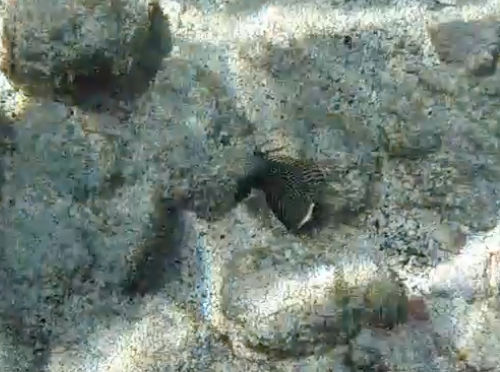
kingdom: Animalia
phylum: Chordata
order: Perciformes
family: Labridae
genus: Novaculichthys
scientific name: Novaculichthys taeniourus
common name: Rockmover wrasse
